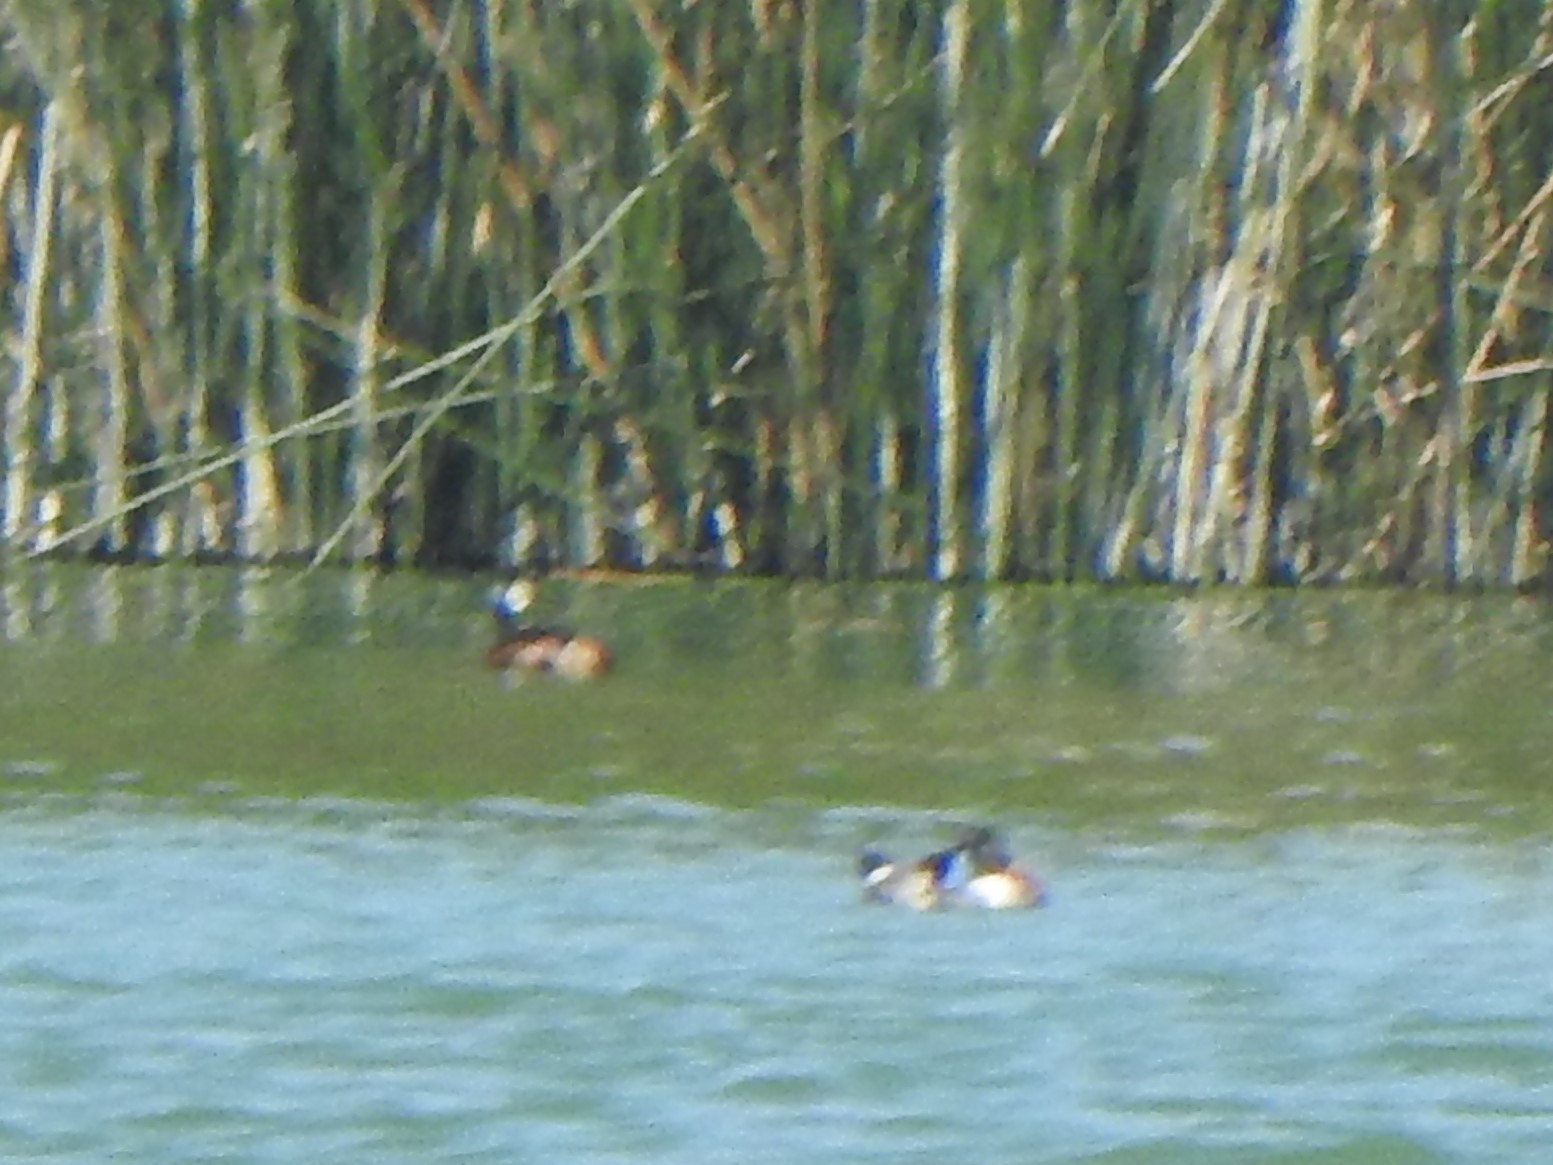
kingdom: Animalia
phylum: Chordata
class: Aves
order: Podicipediformes
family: Podicipedidae
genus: Rollandia
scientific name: Rollandia rolland
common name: White-tufted grebe
